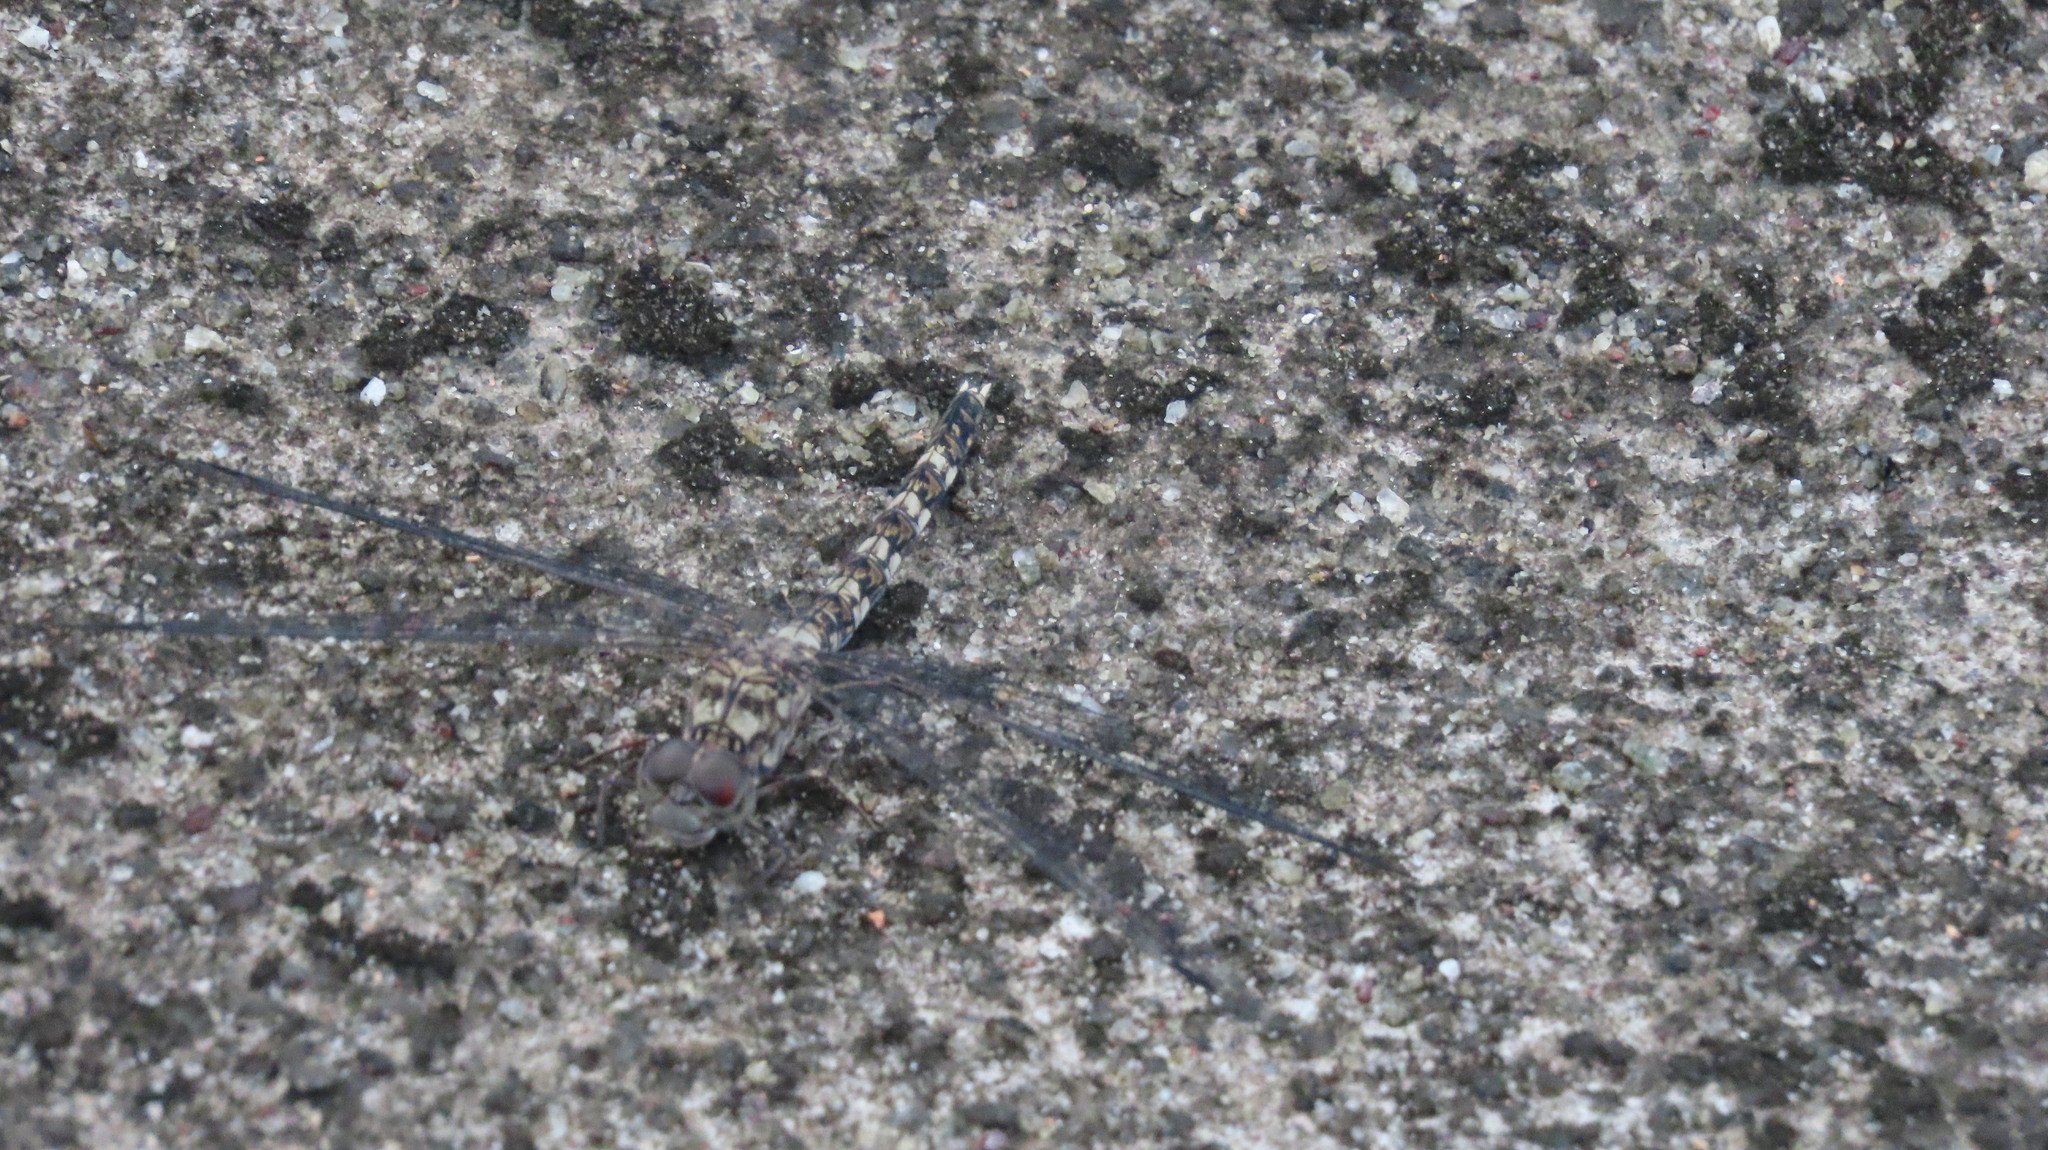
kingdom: Animalia
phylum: Arthropoda
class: Insecta
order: Odonata
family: Libellulidae
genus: Bradinopyga
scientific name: Bradinopyga geminata
